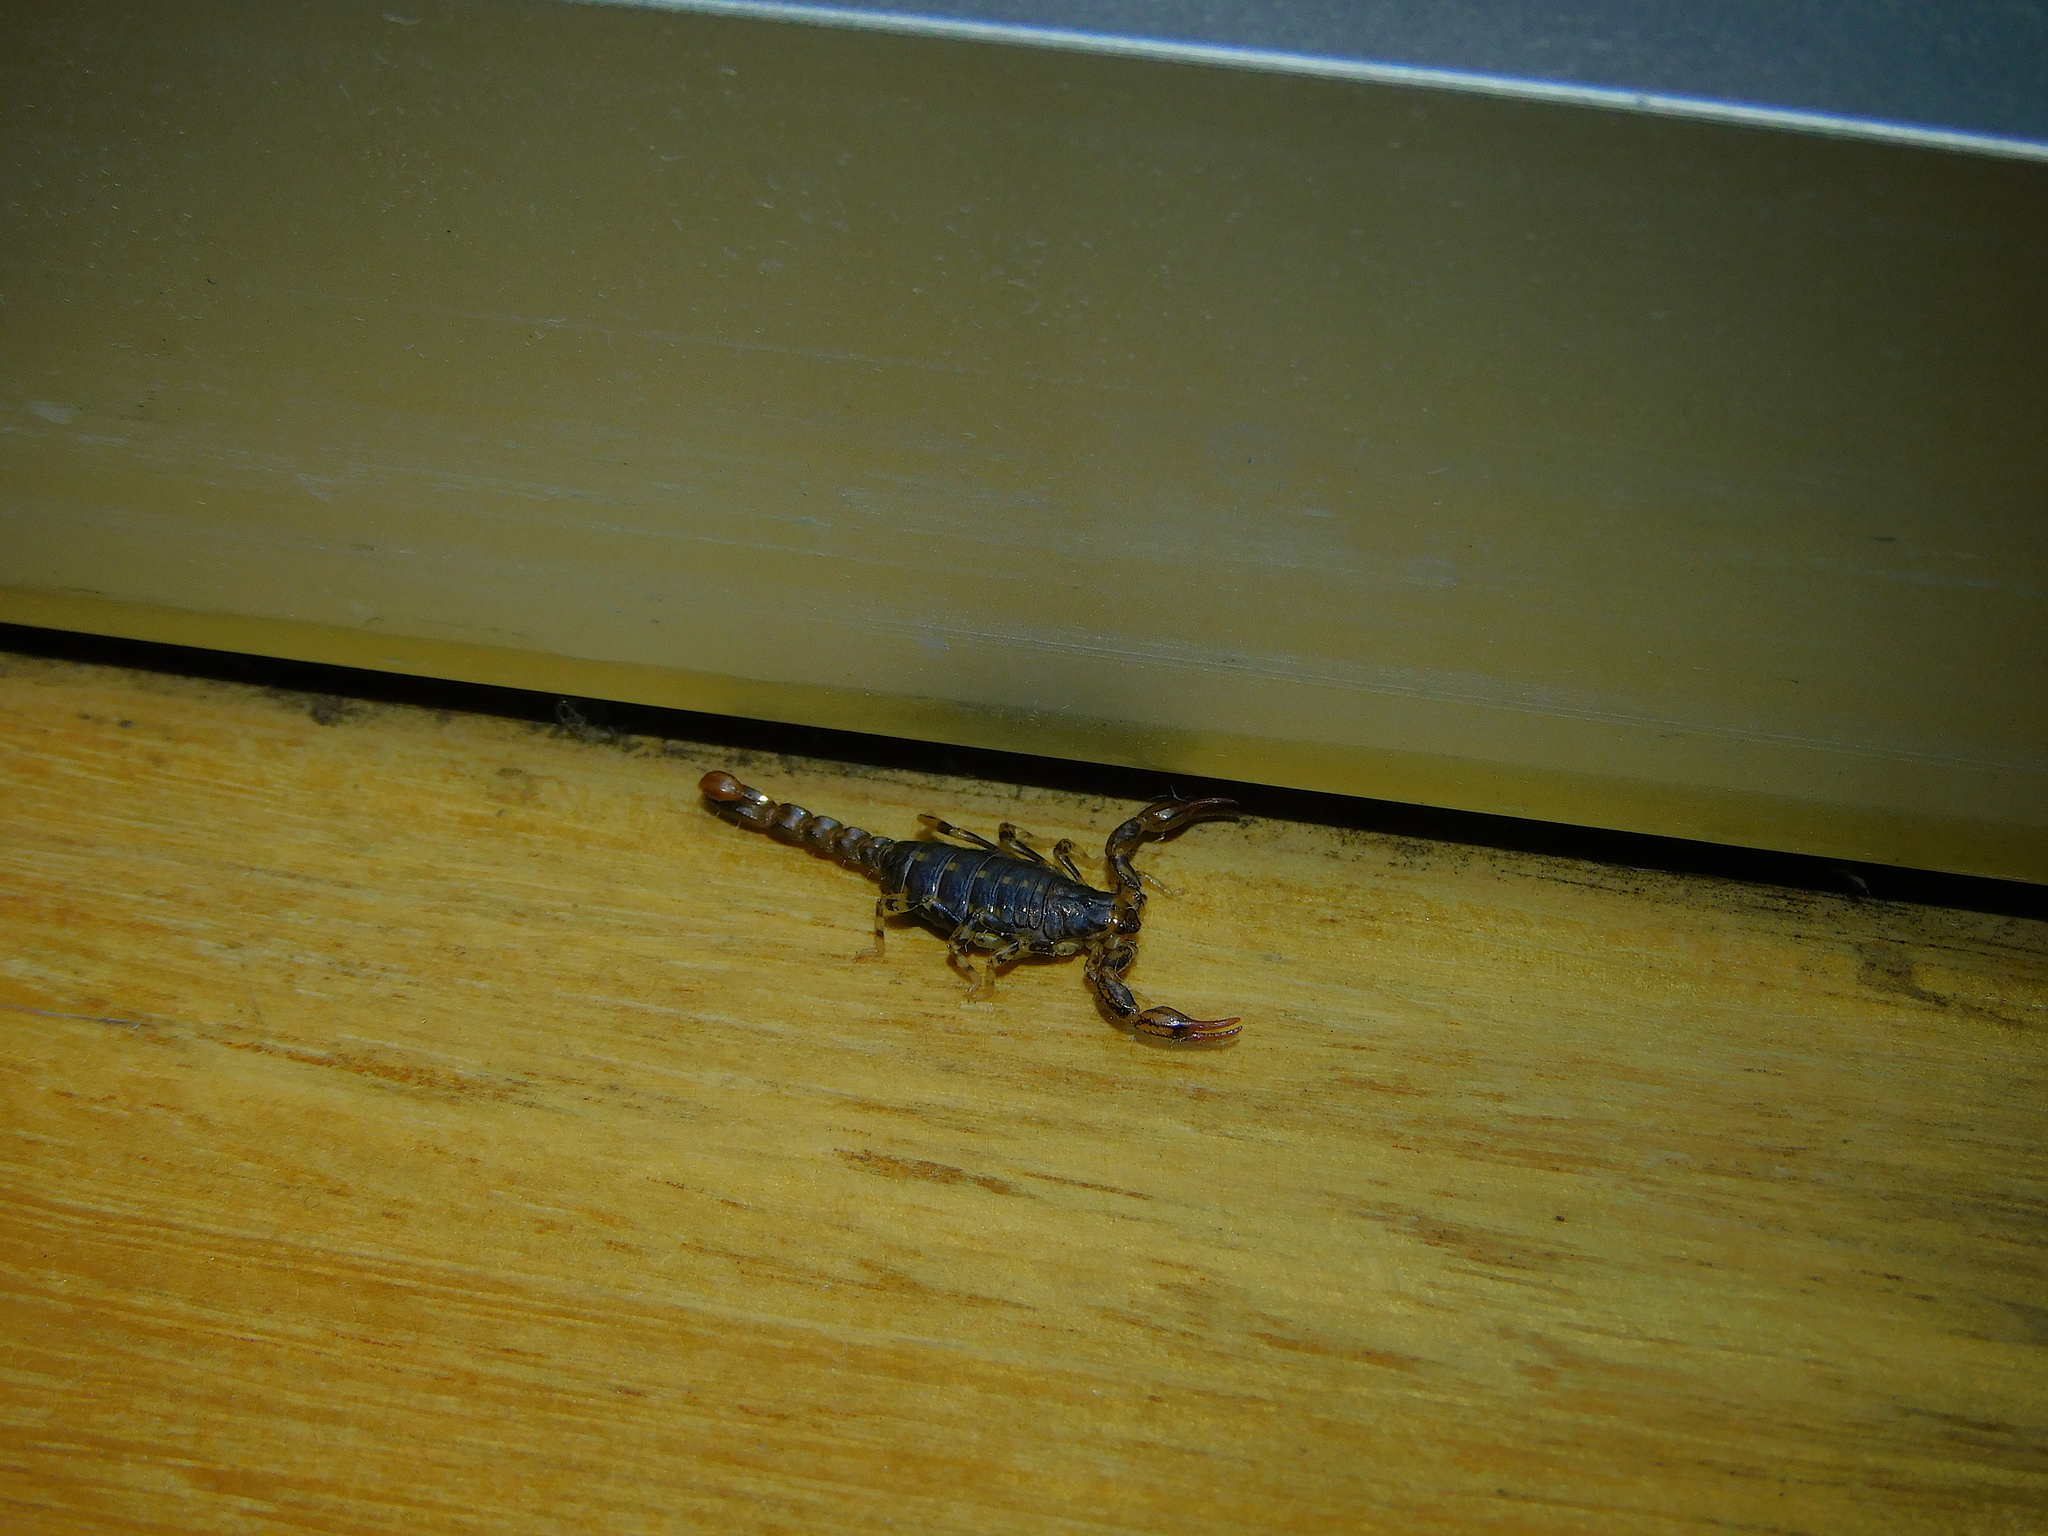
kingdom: Animalia
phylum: Arthropoda
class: Arachnida
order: Scorpiones
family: Bothriuridae
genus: Cercophonius
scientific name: Cercophonius squama
